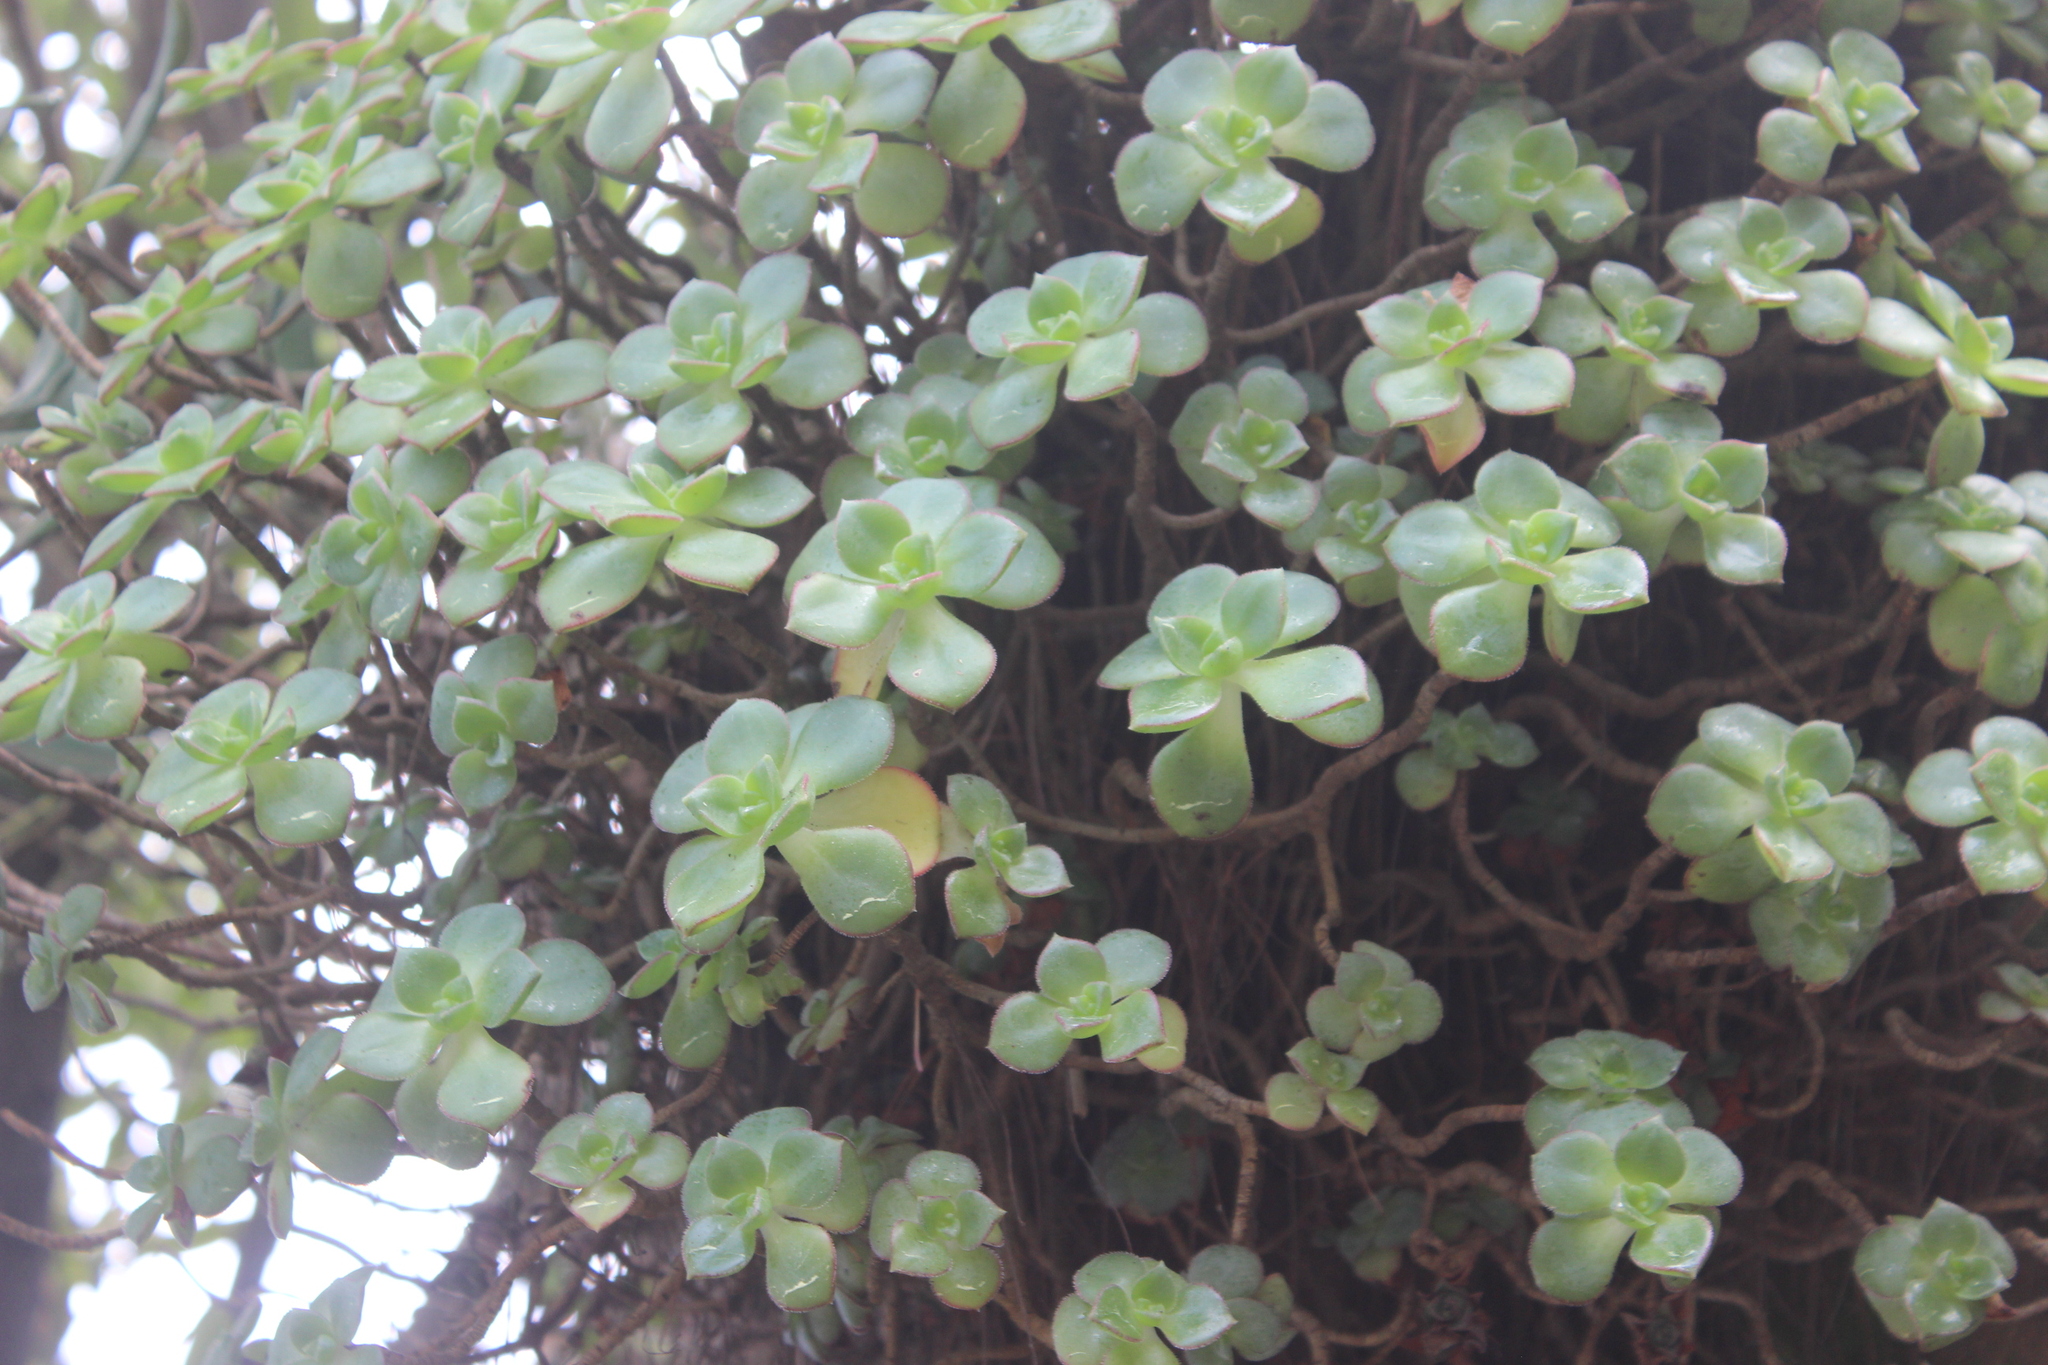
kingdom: Plantae
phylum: Tracheophyta
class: Magnoliopsida
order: Saxifragales
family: Crassulaceae
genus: Aeonium
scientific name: Aeonium haworthii
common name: Haworth's aeonium
